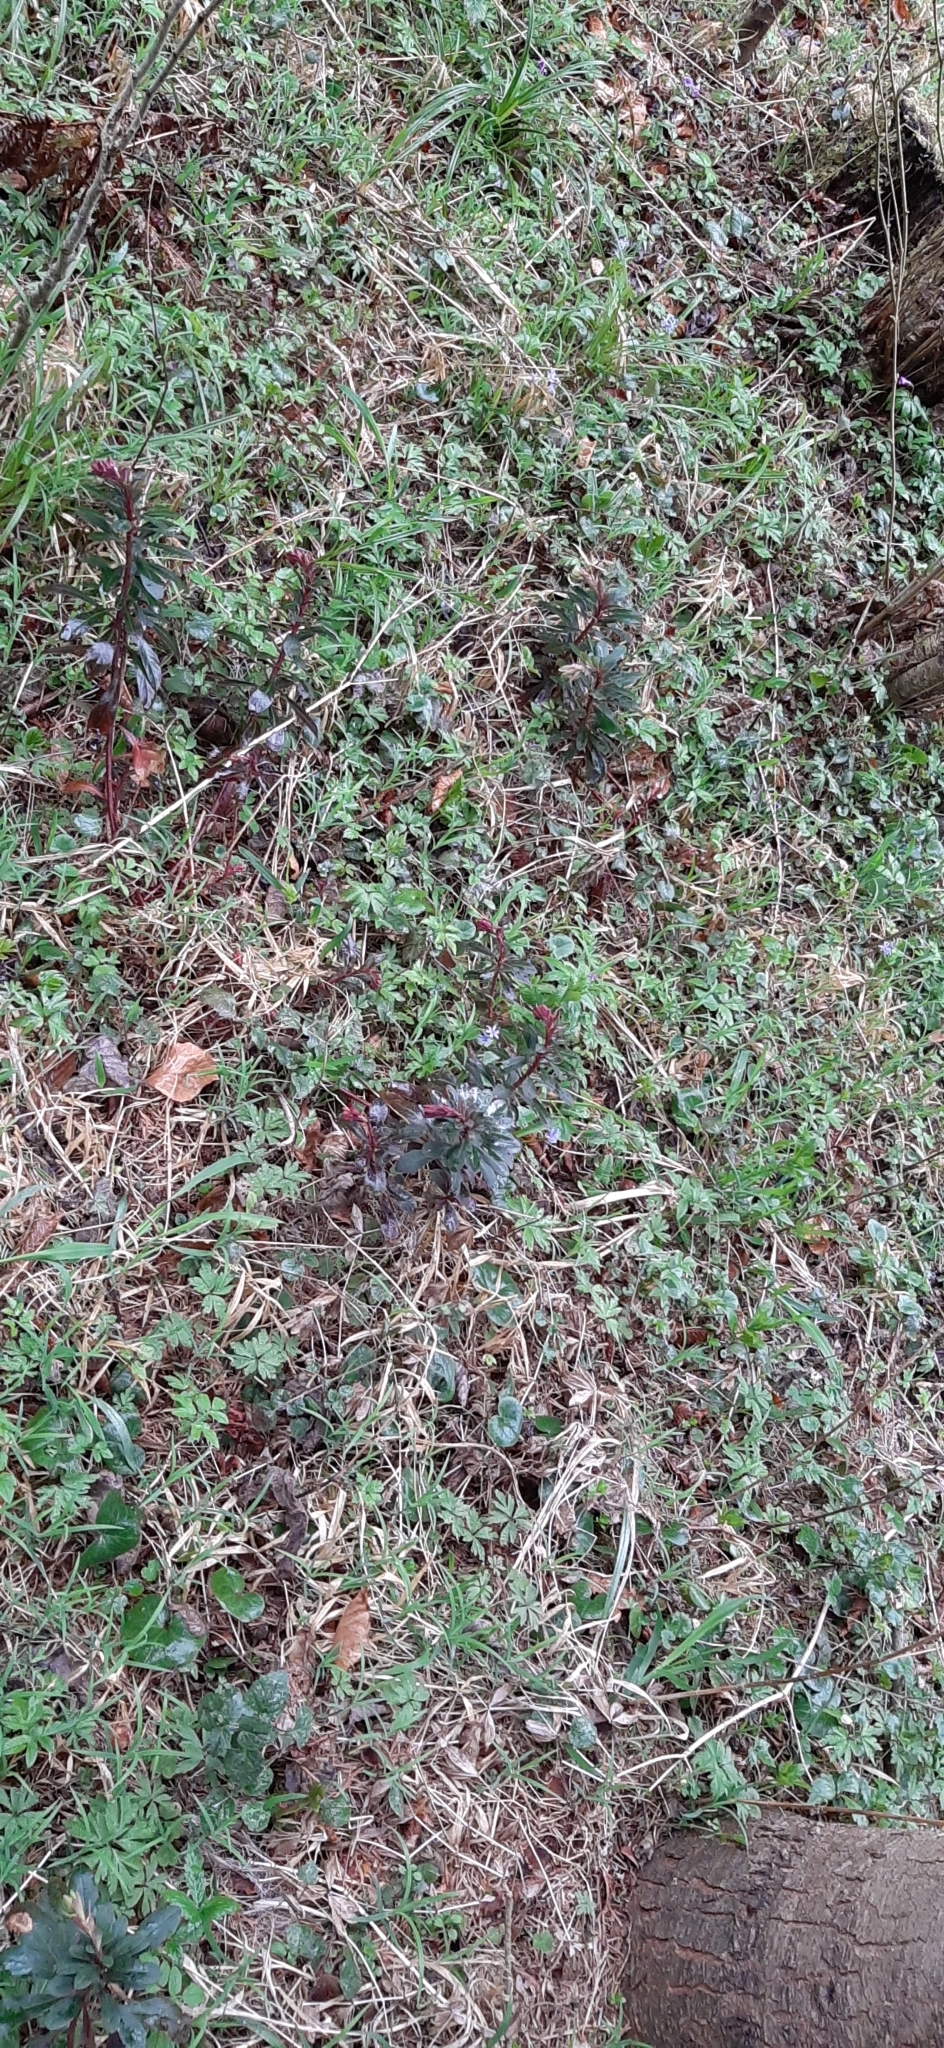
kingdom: Plantae
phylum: Tracheophyta
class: Magnoliopsida
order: Malpighiales
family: Euphorbiaceae
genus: Euphorbia
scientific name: Euphorbia amygdaloides
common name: Wood spurge
